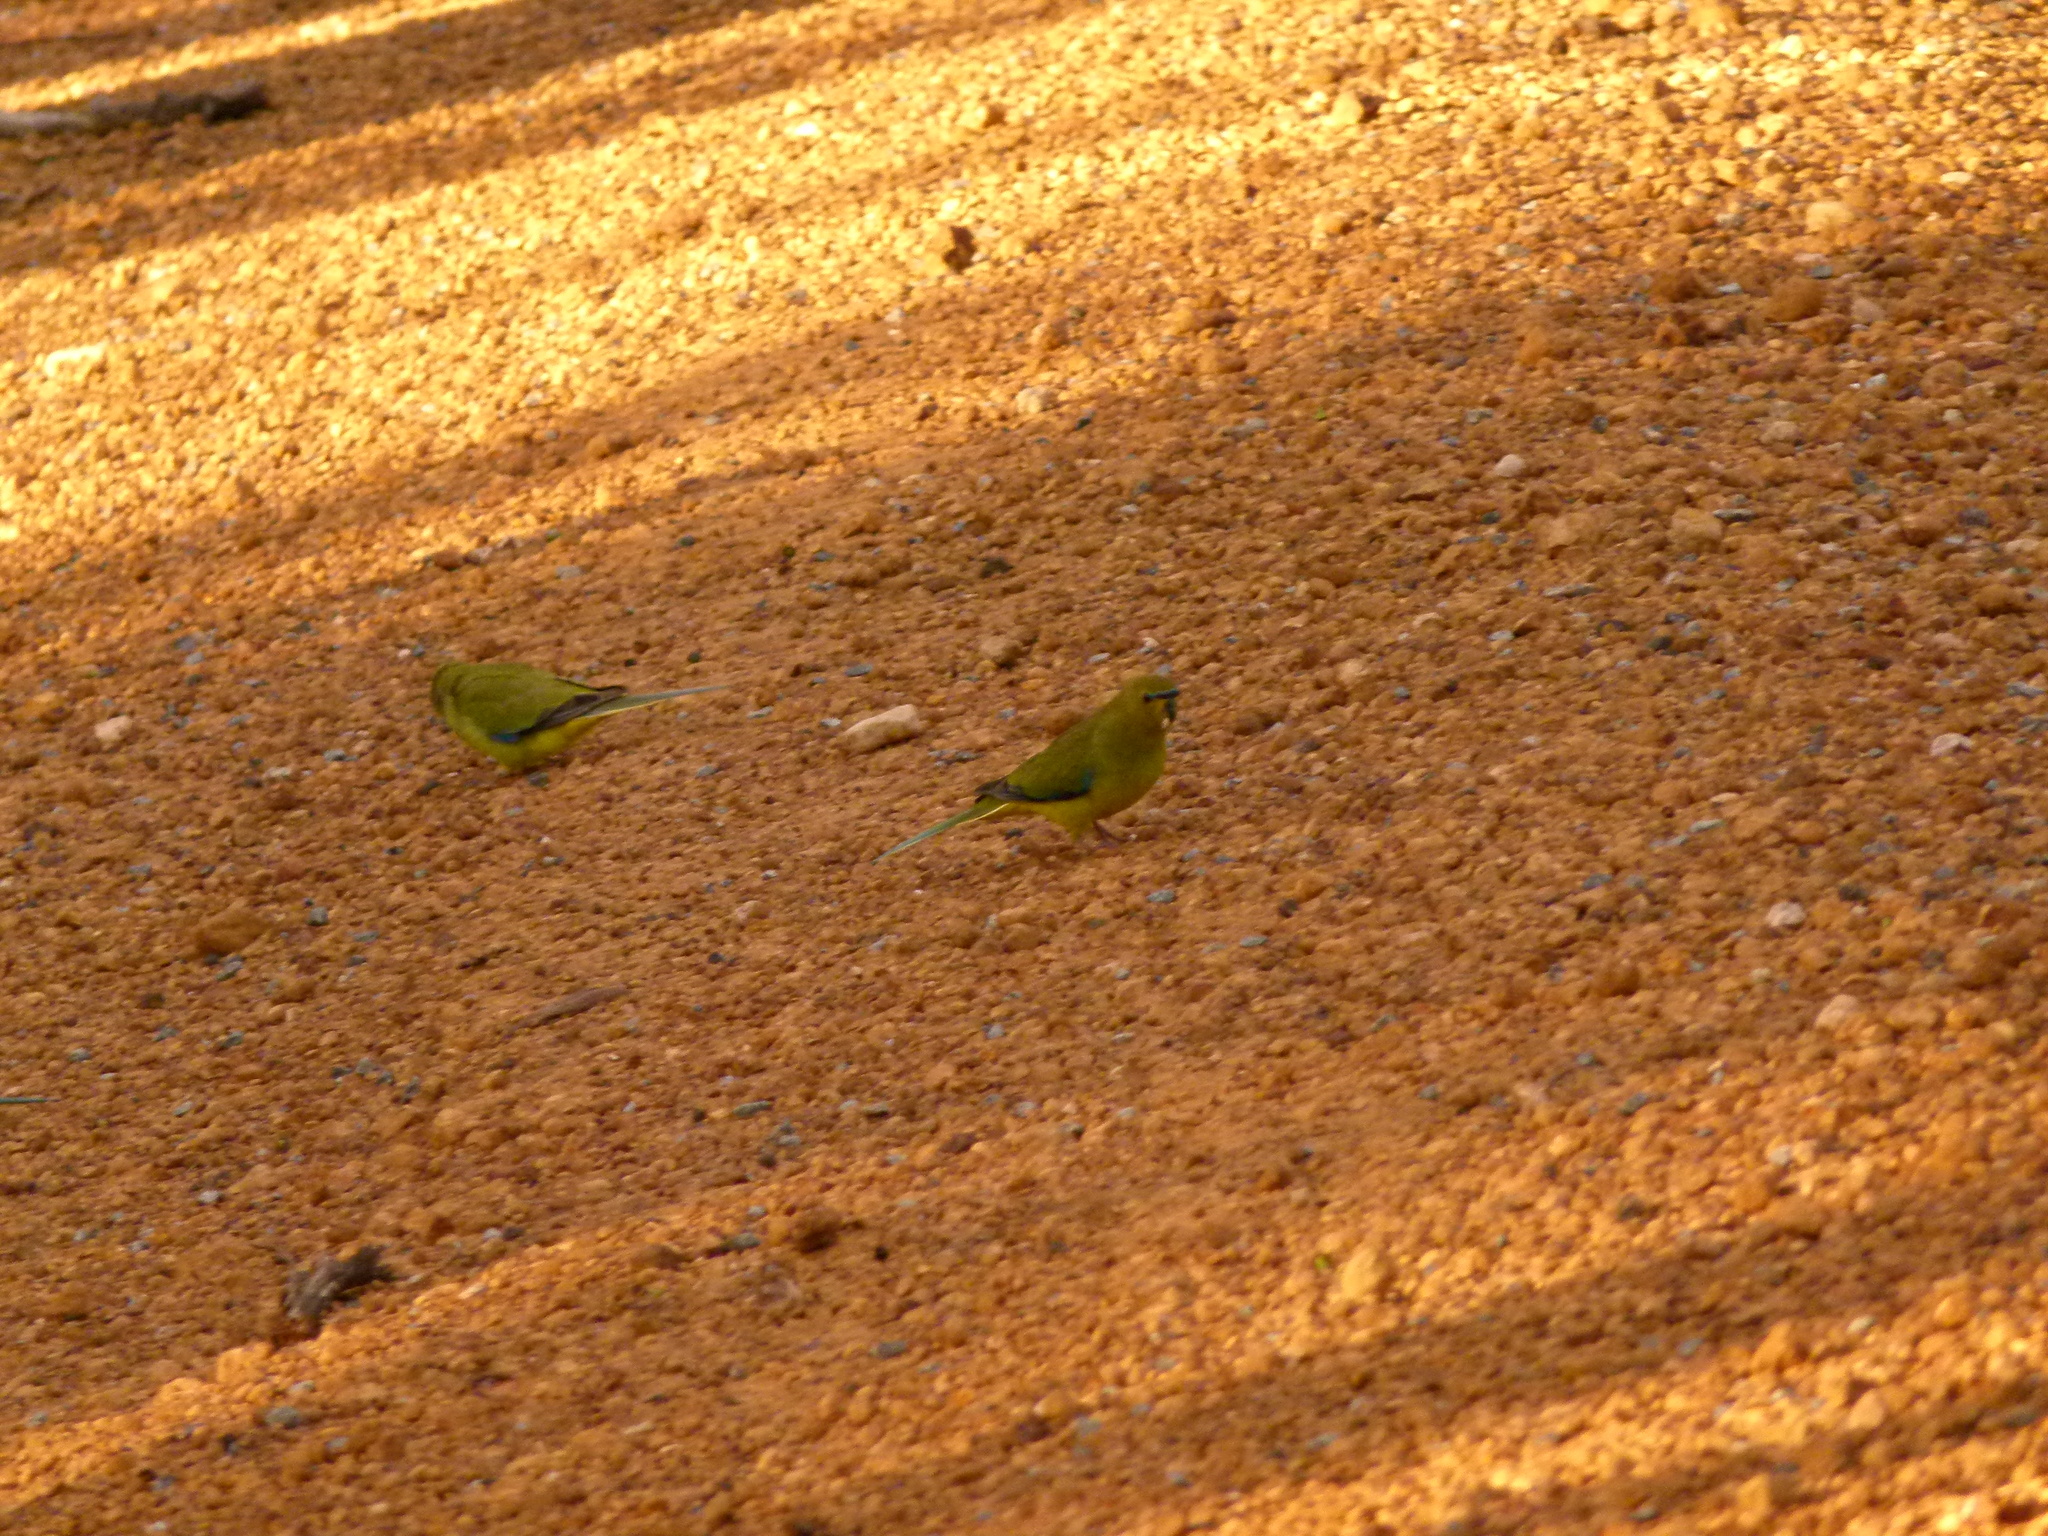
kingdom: Animalia
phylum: Chordata
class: Aves
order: Psittaciformes
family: Psittacidae
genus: Neophema
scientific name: Neophema elegans
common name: Elegant parrot
